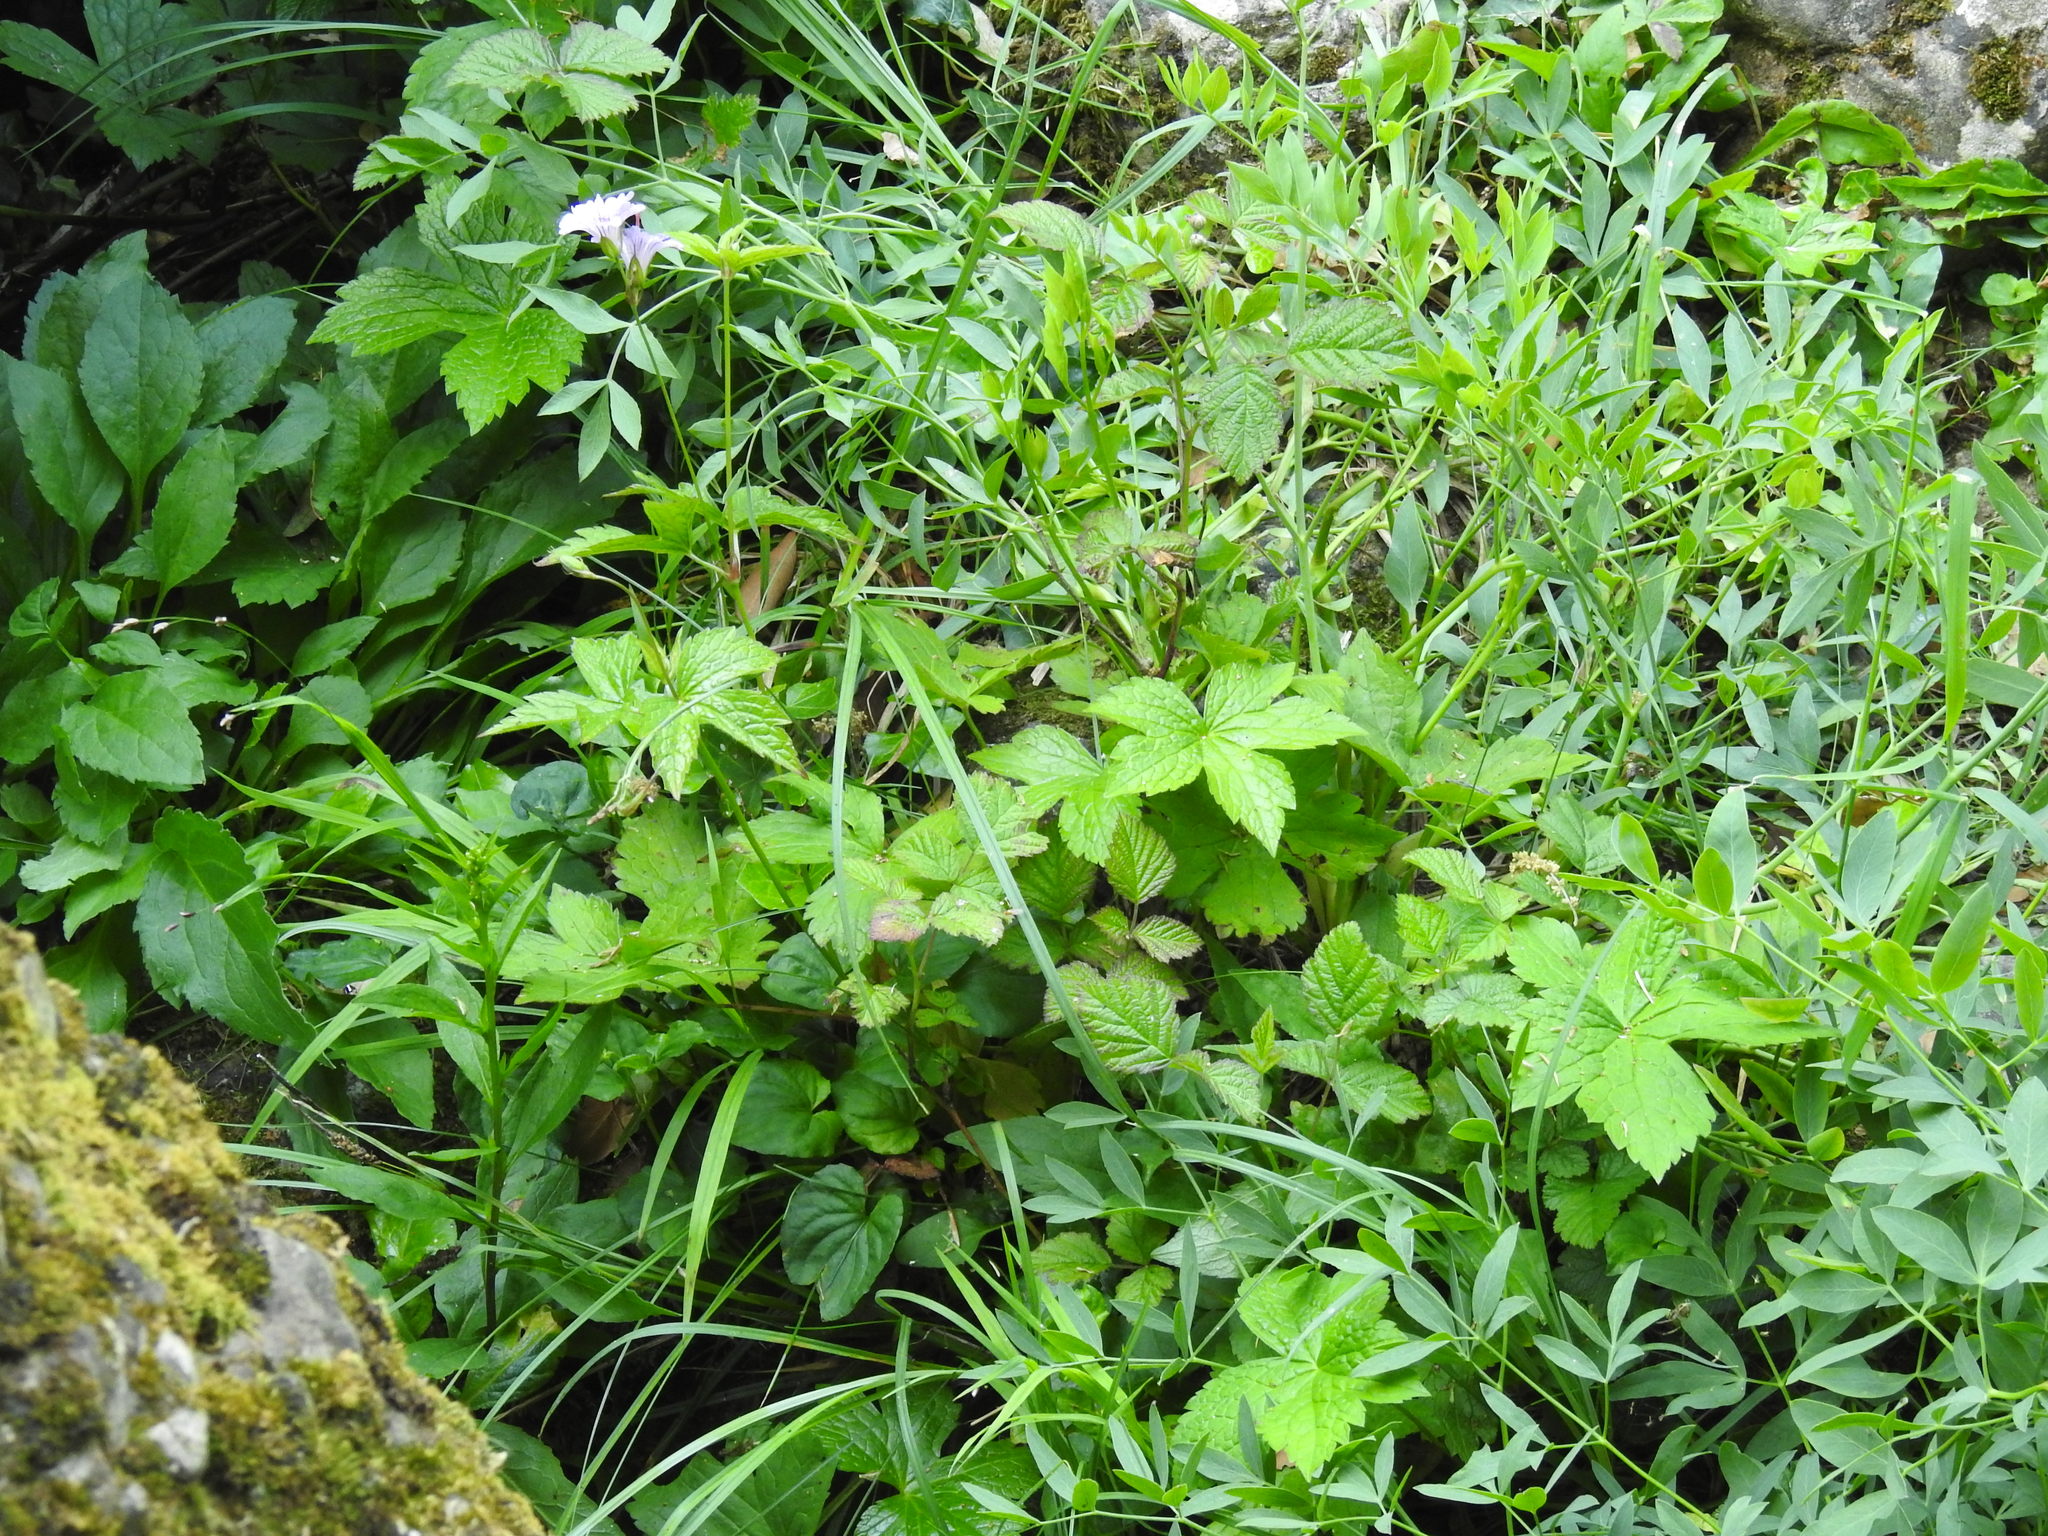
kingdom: Plantae
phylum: Tracheophyta
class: Magnoliopsida
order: Geraniales
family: Geraniaceae
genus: Geranium
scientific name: Geranium nodosum
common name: Knotted crane's-bill
